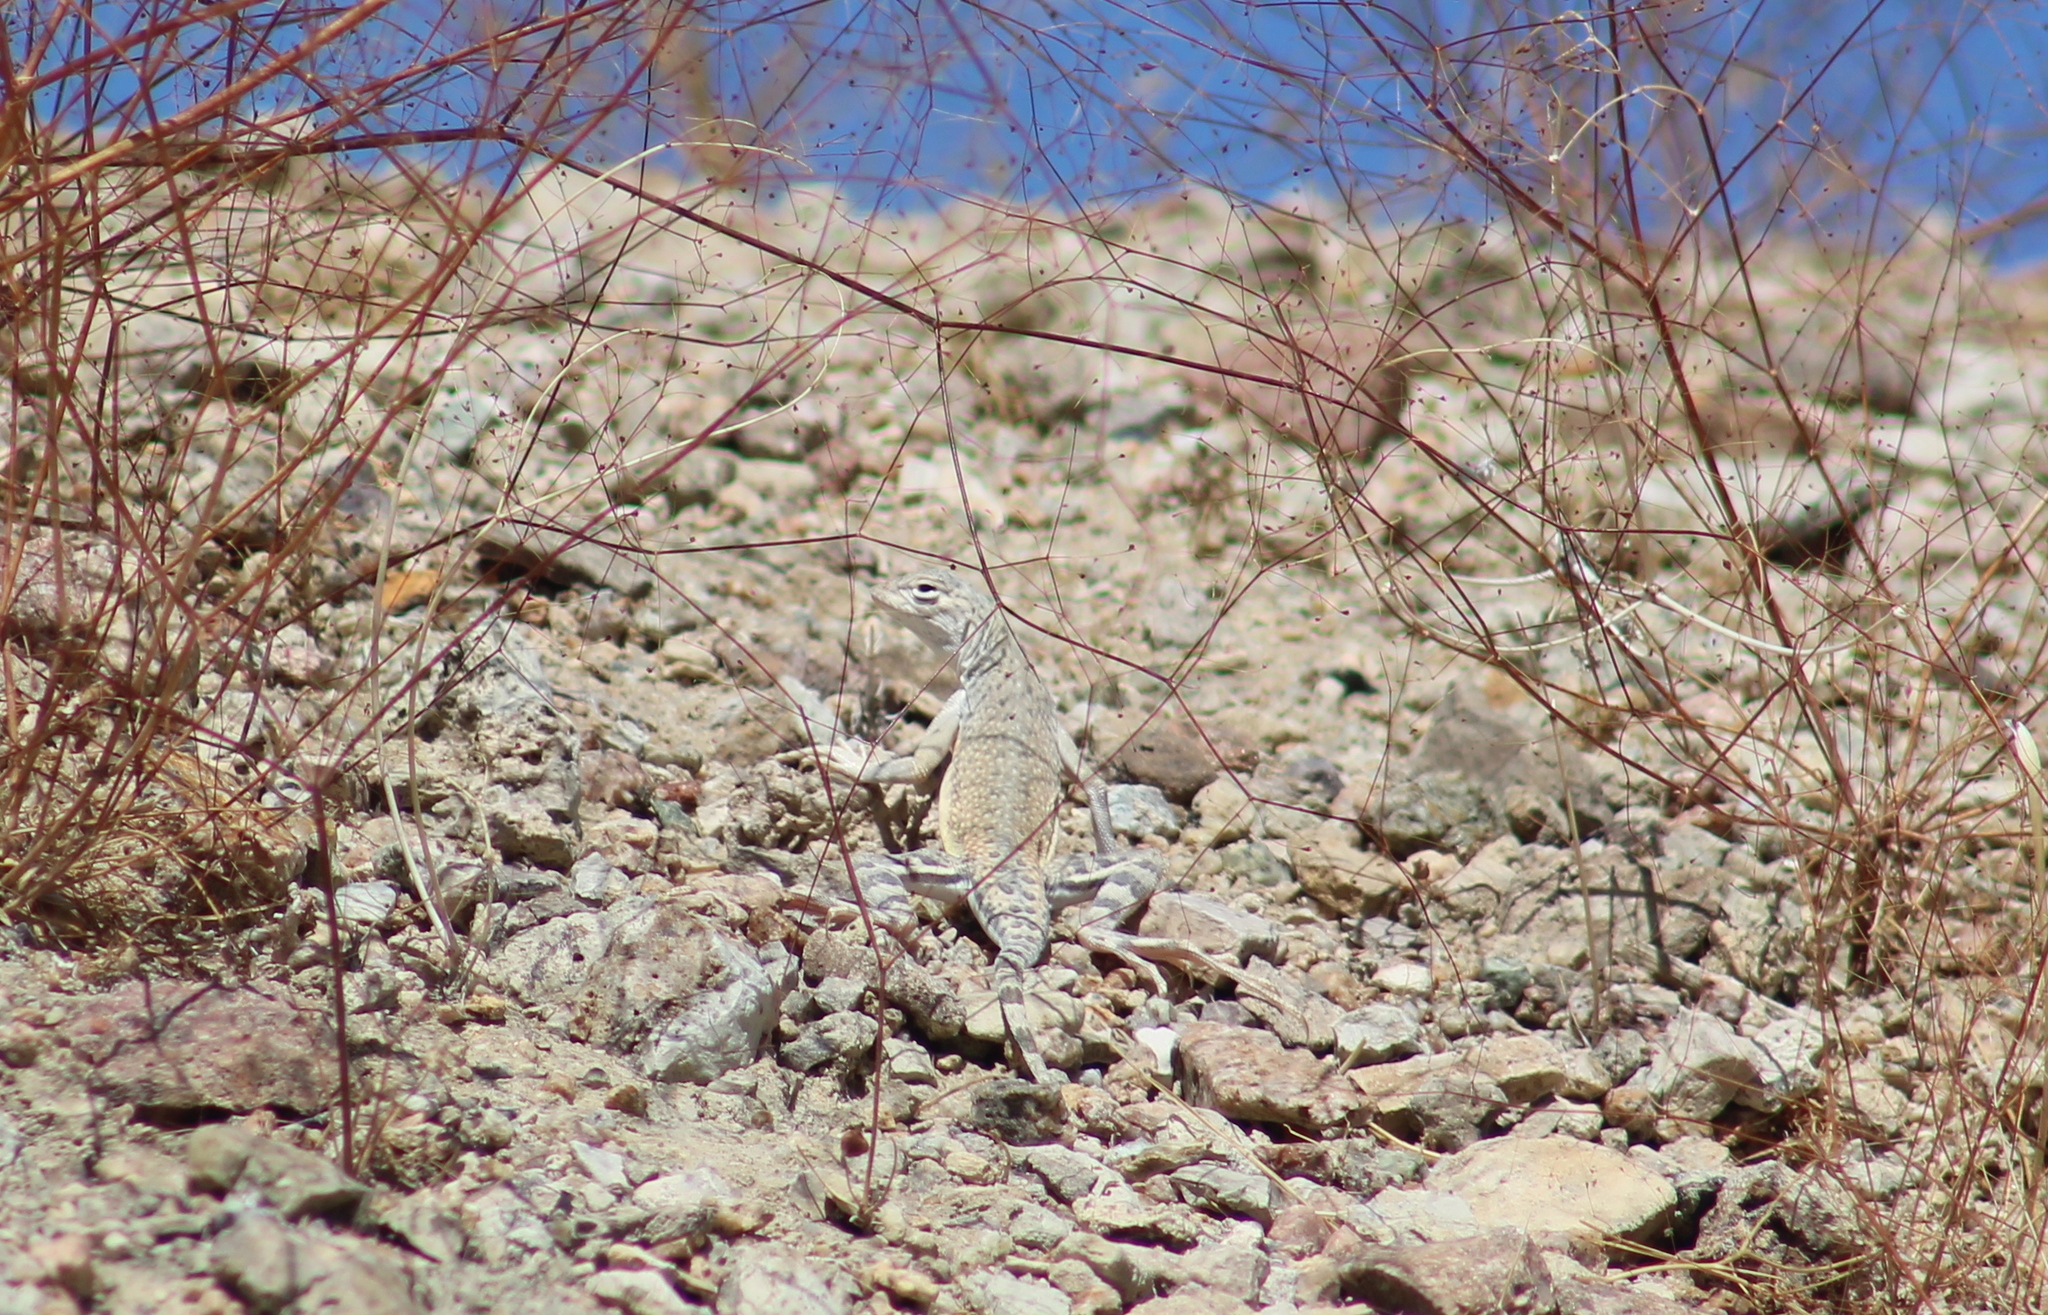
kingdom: Animalia
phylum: Chordata
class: Squamata
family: Phrynosomatidae
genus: Callisaurus
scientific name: Callisaurus draconoides
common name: Zebra-tailed lizard
